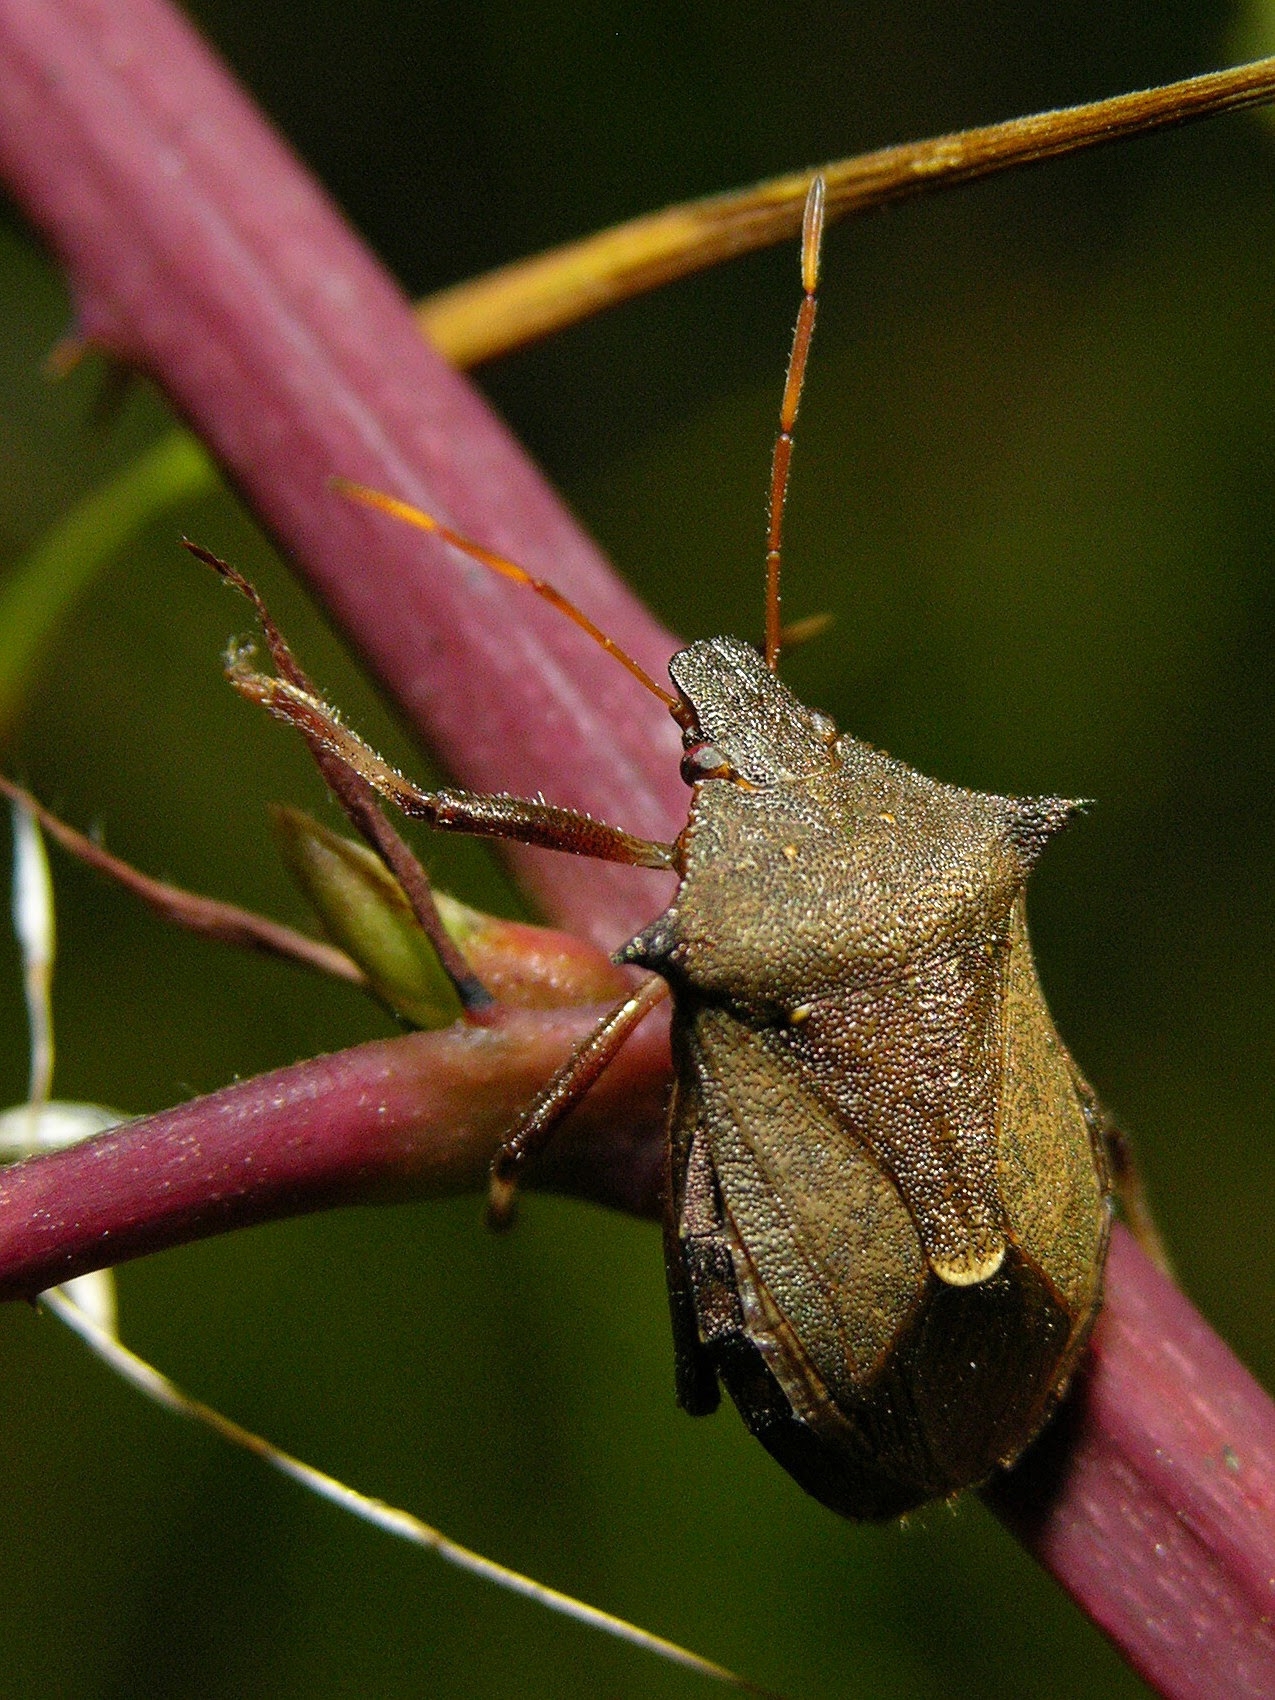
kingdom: Animalia
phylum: Arthropoda
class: Insecta
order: Hemiptera
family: Pentatomidae
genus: Picromerus
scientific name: Picromerus bidens
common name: Spiked shieldbug
